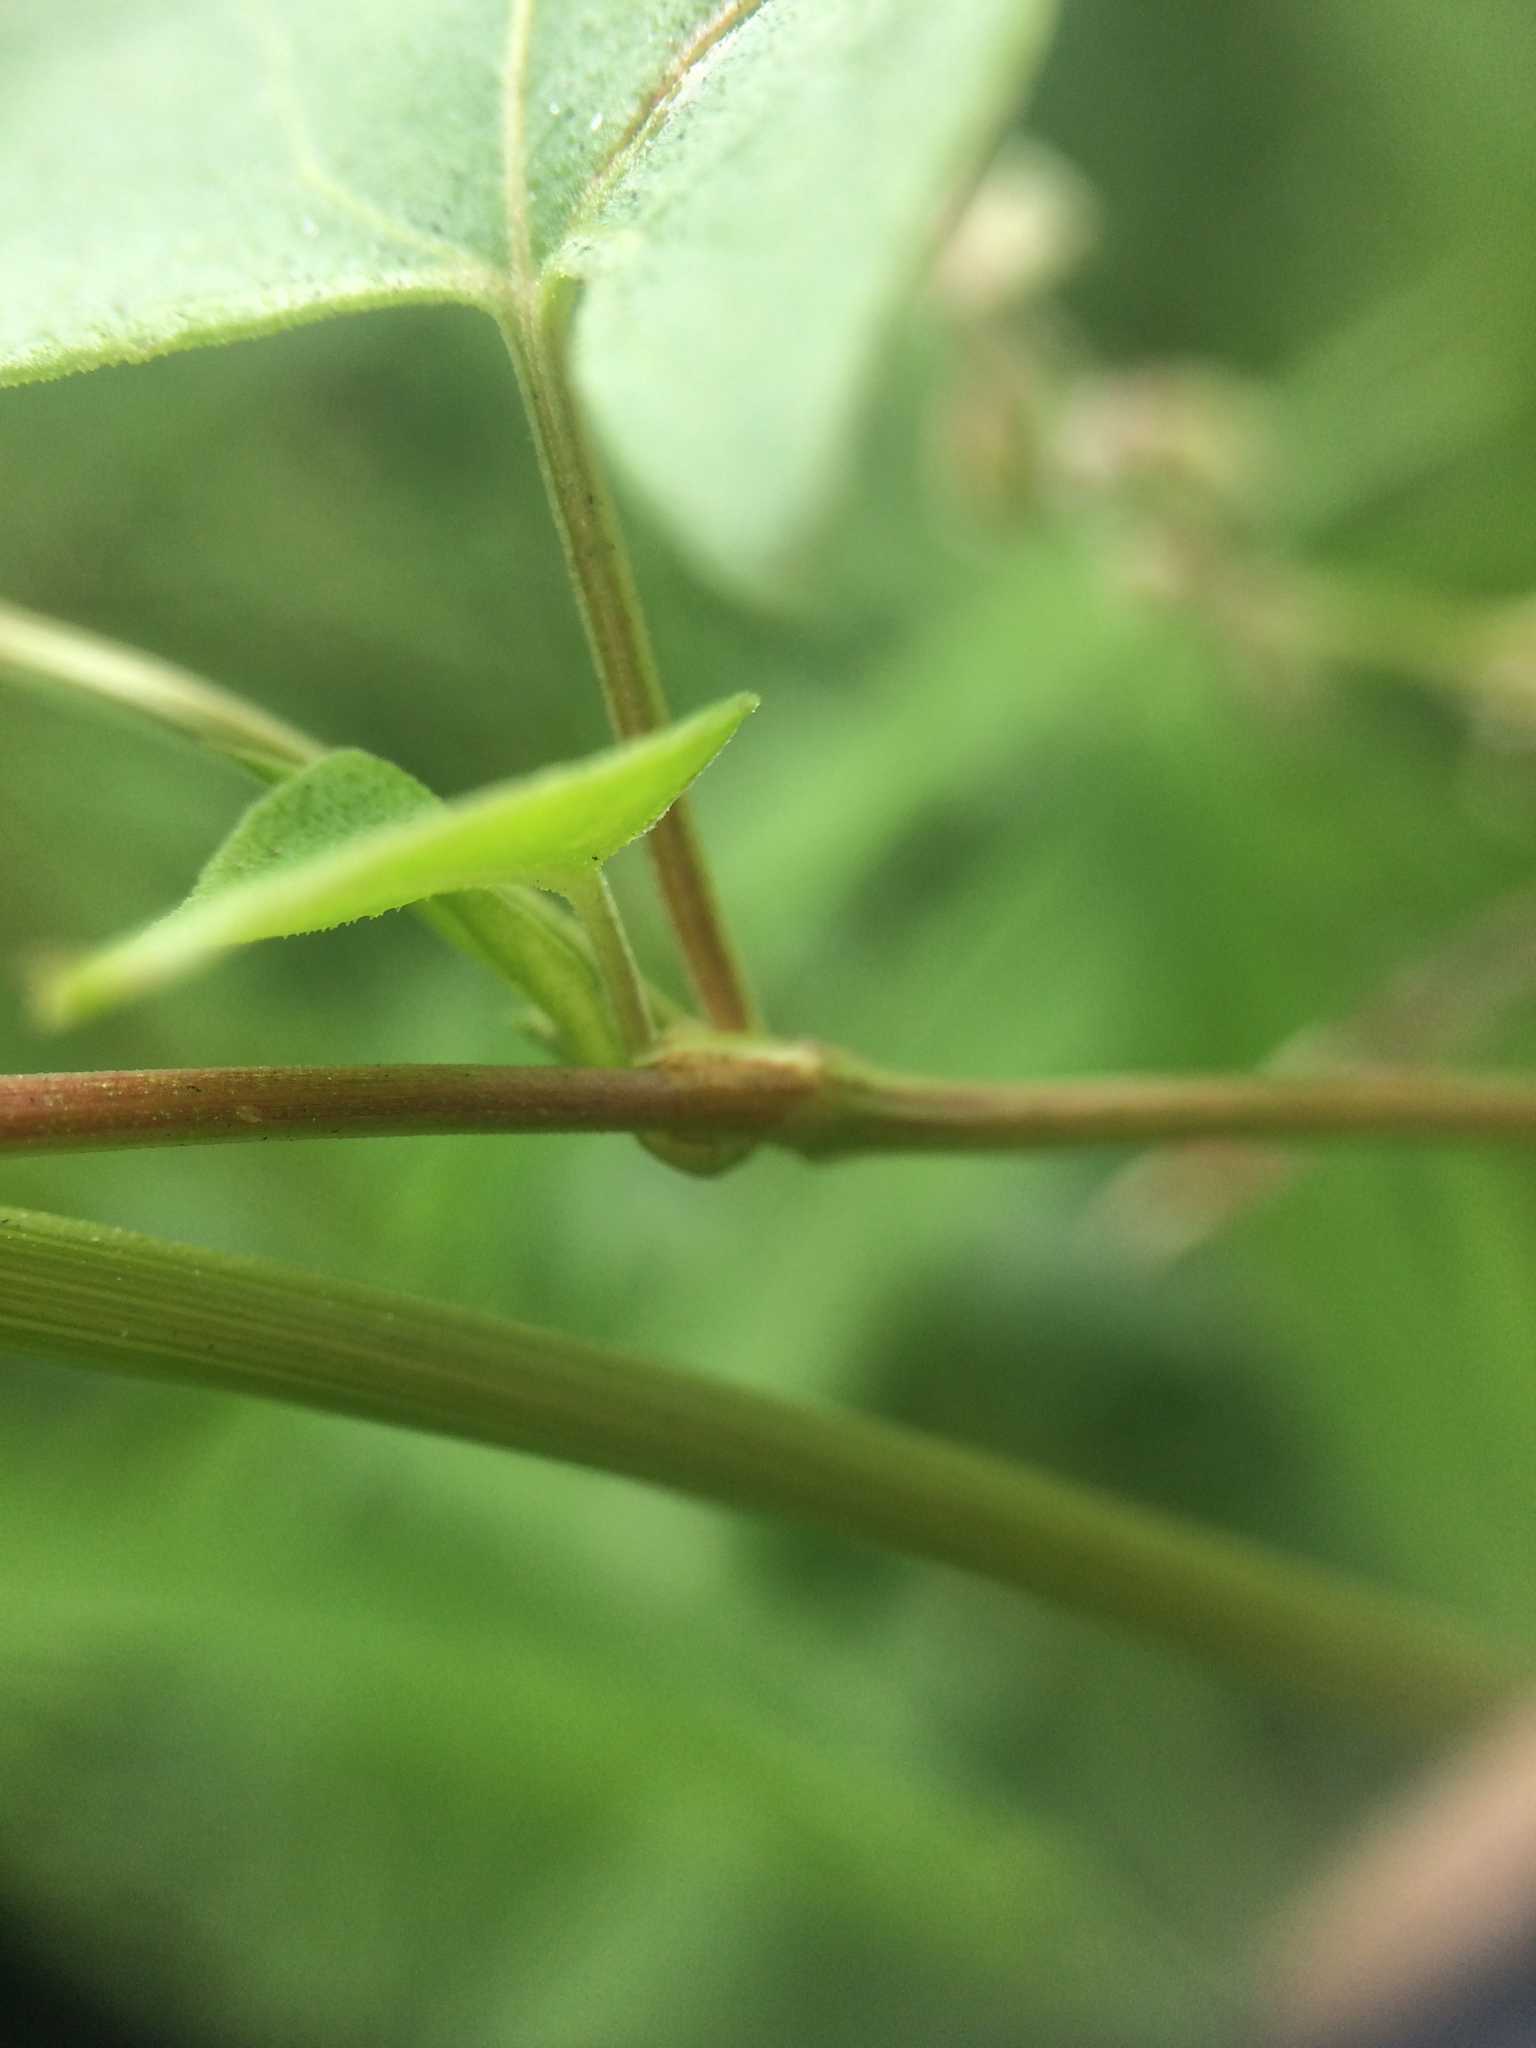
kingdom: Plantae
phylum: Tracheophyta
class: Magnoliopsida
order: Caryophyllales
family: Polygonaceae
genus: Fallopia
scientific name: Fallopia convolvulus
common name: Black bindweed
